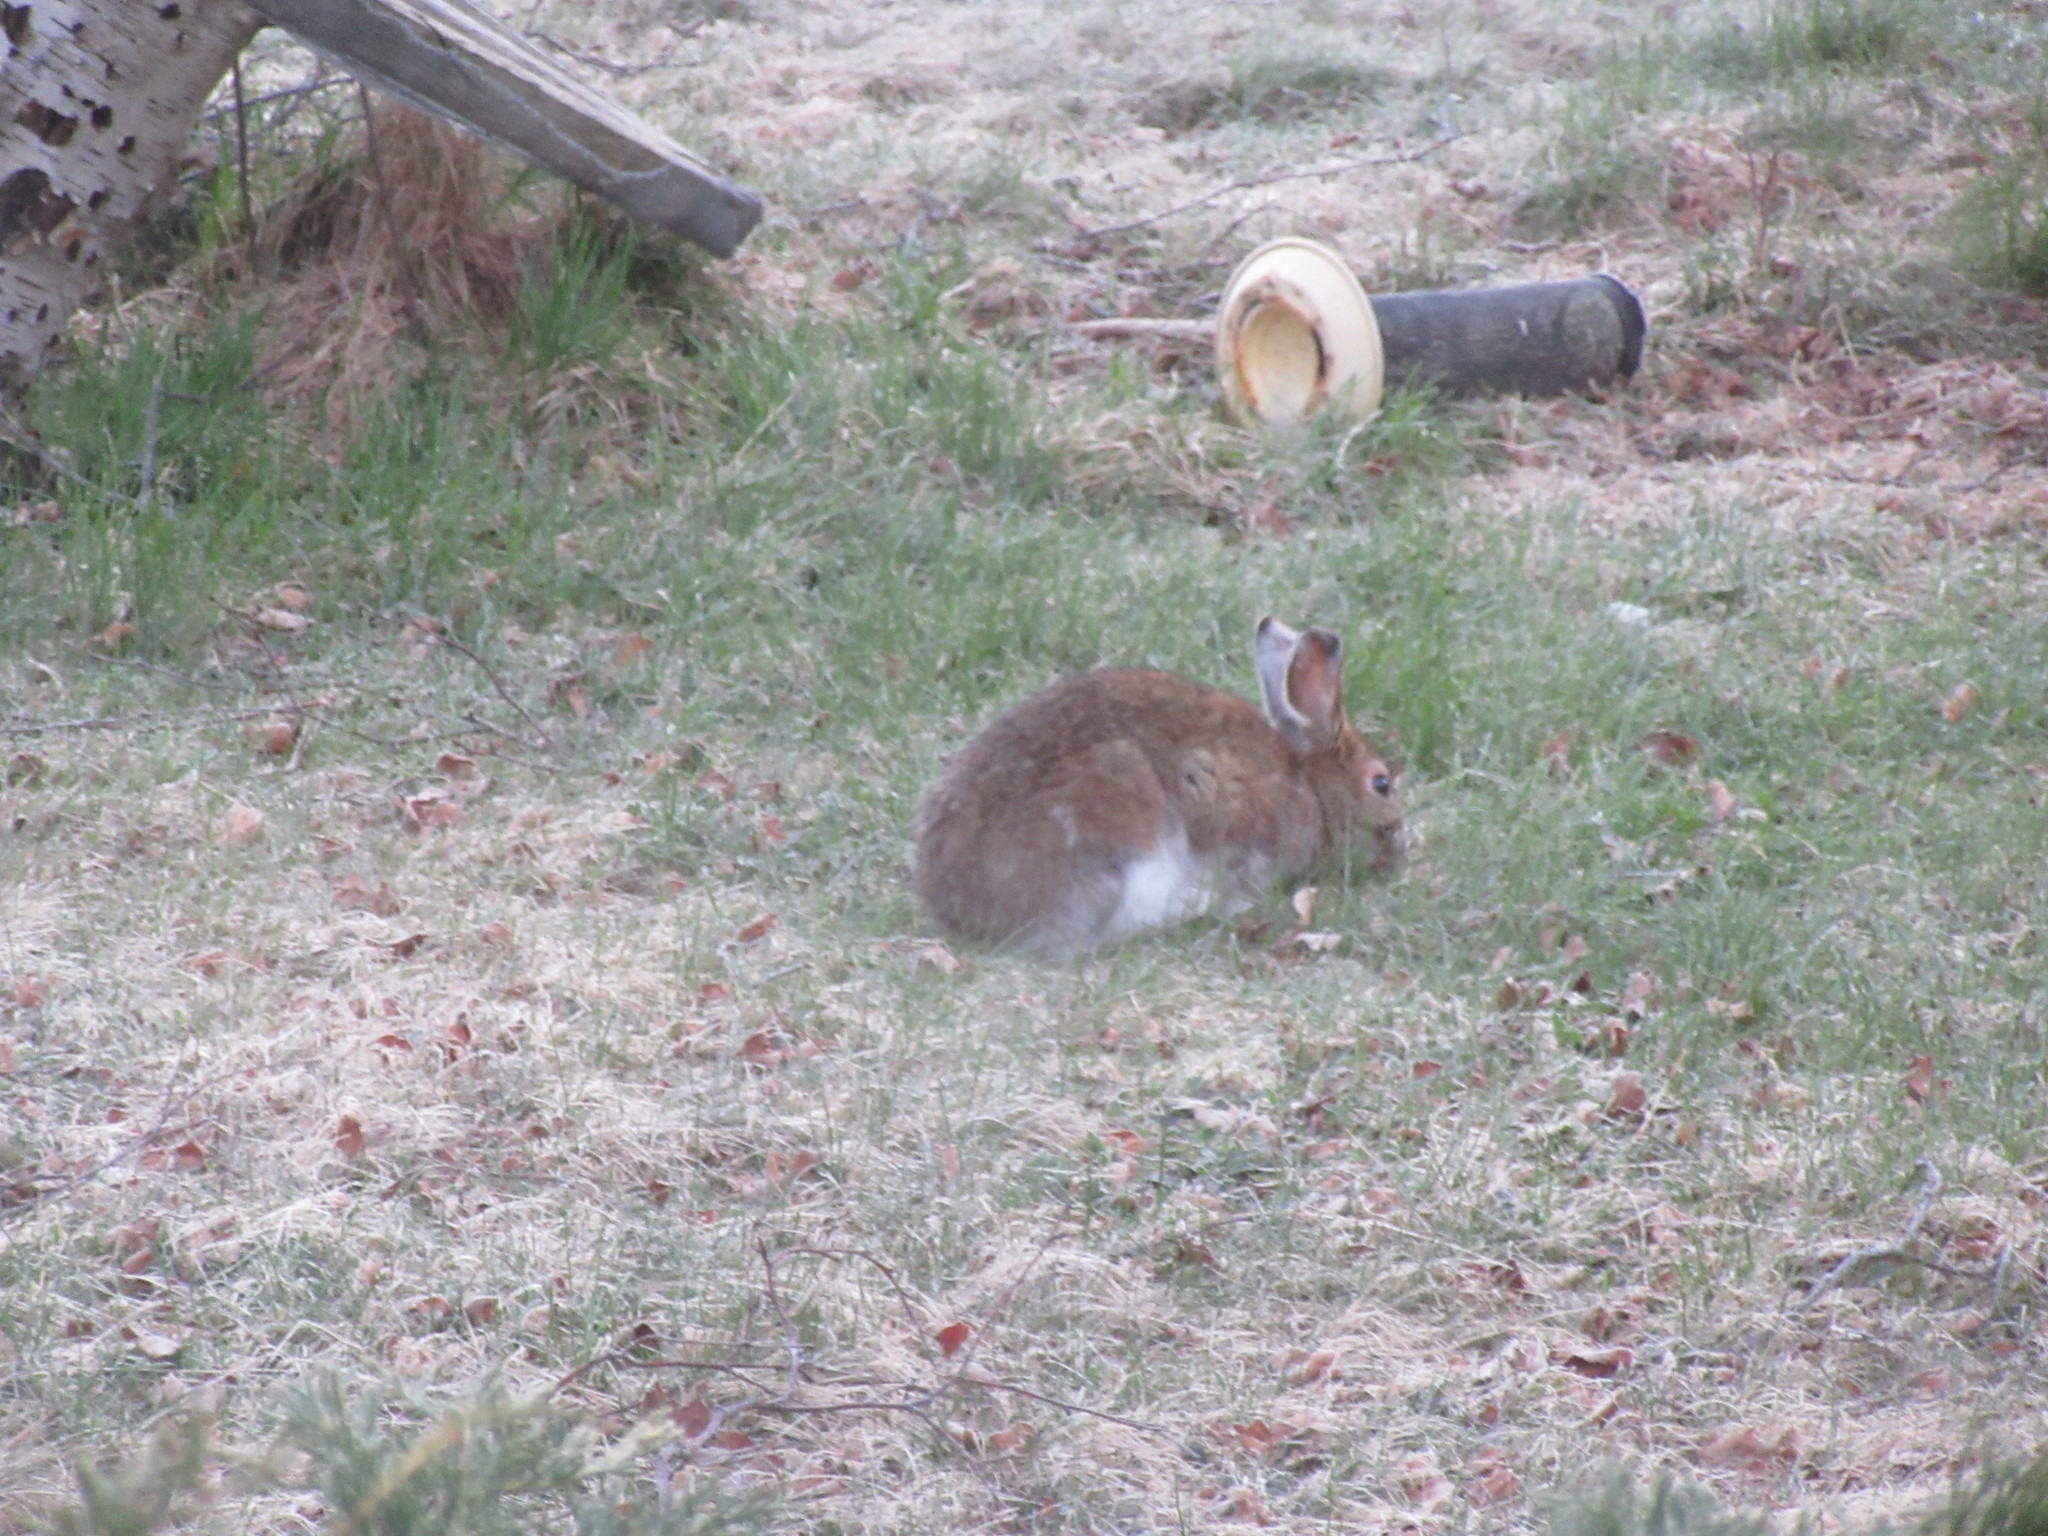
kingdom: Animalia
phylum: Chordata
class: Mammalia
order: Lagomorpha
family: Leporidae
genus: Lepus
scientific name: Lepus americanus
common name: Snowshoe hare
